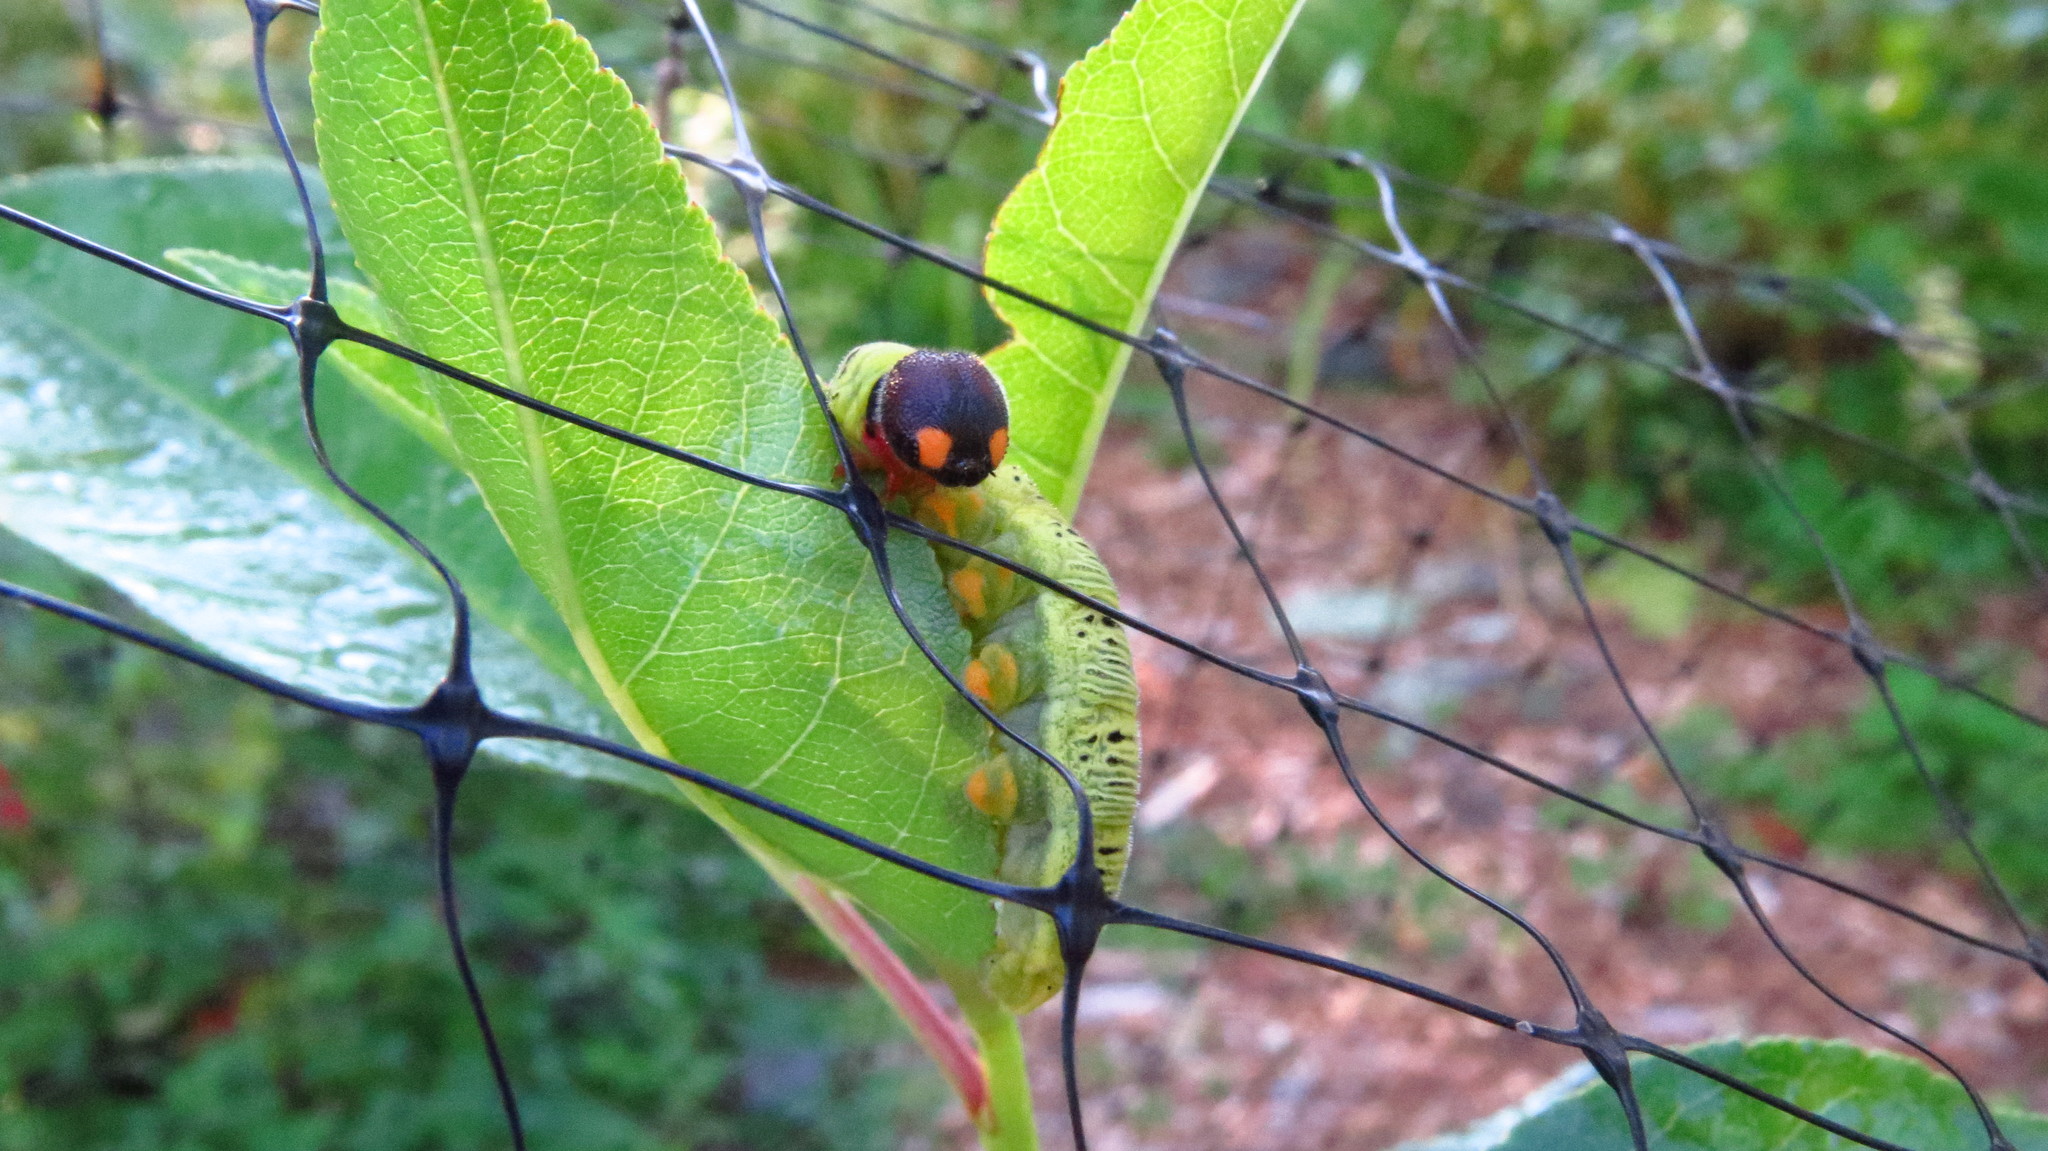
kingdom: Animalia
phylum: Arthropoda
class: Insecta
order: Lepidoptera
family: Hesperiidae
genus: Epargyreus
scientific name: Epargyreus clarus
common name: Silver-spotted skipper
